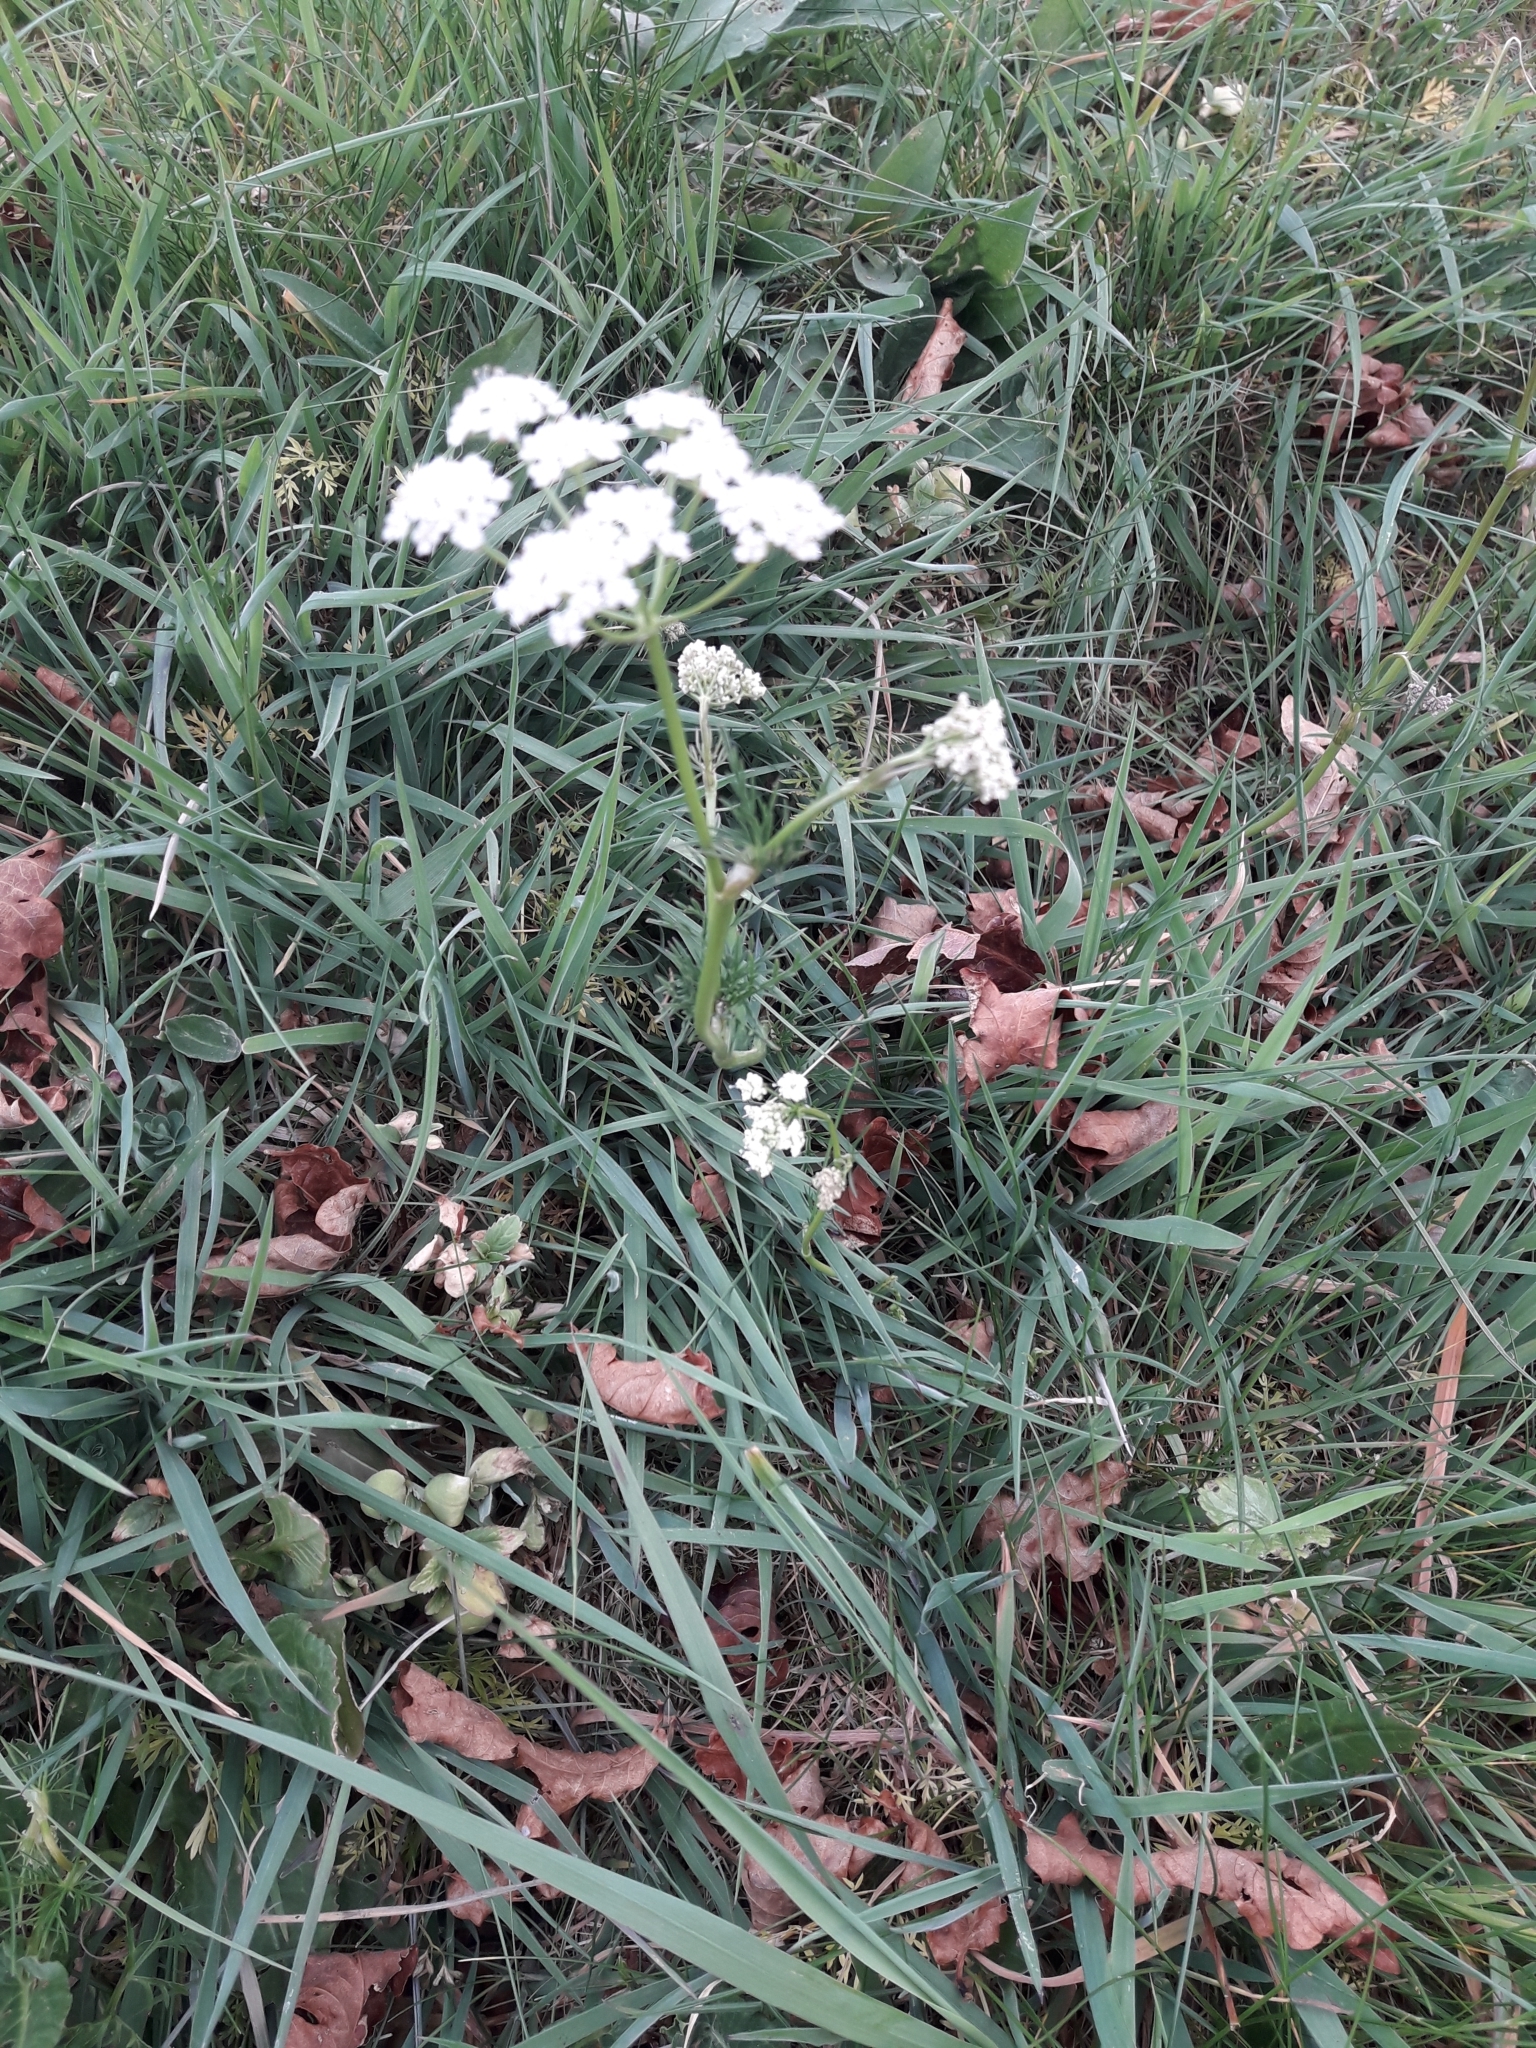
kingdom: Plantae
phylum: Tracheophyta
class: Magnoliopsida
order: Apiales
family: Apiaceae
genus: Conopodium
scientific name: Conopodium majus
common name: Pignut
